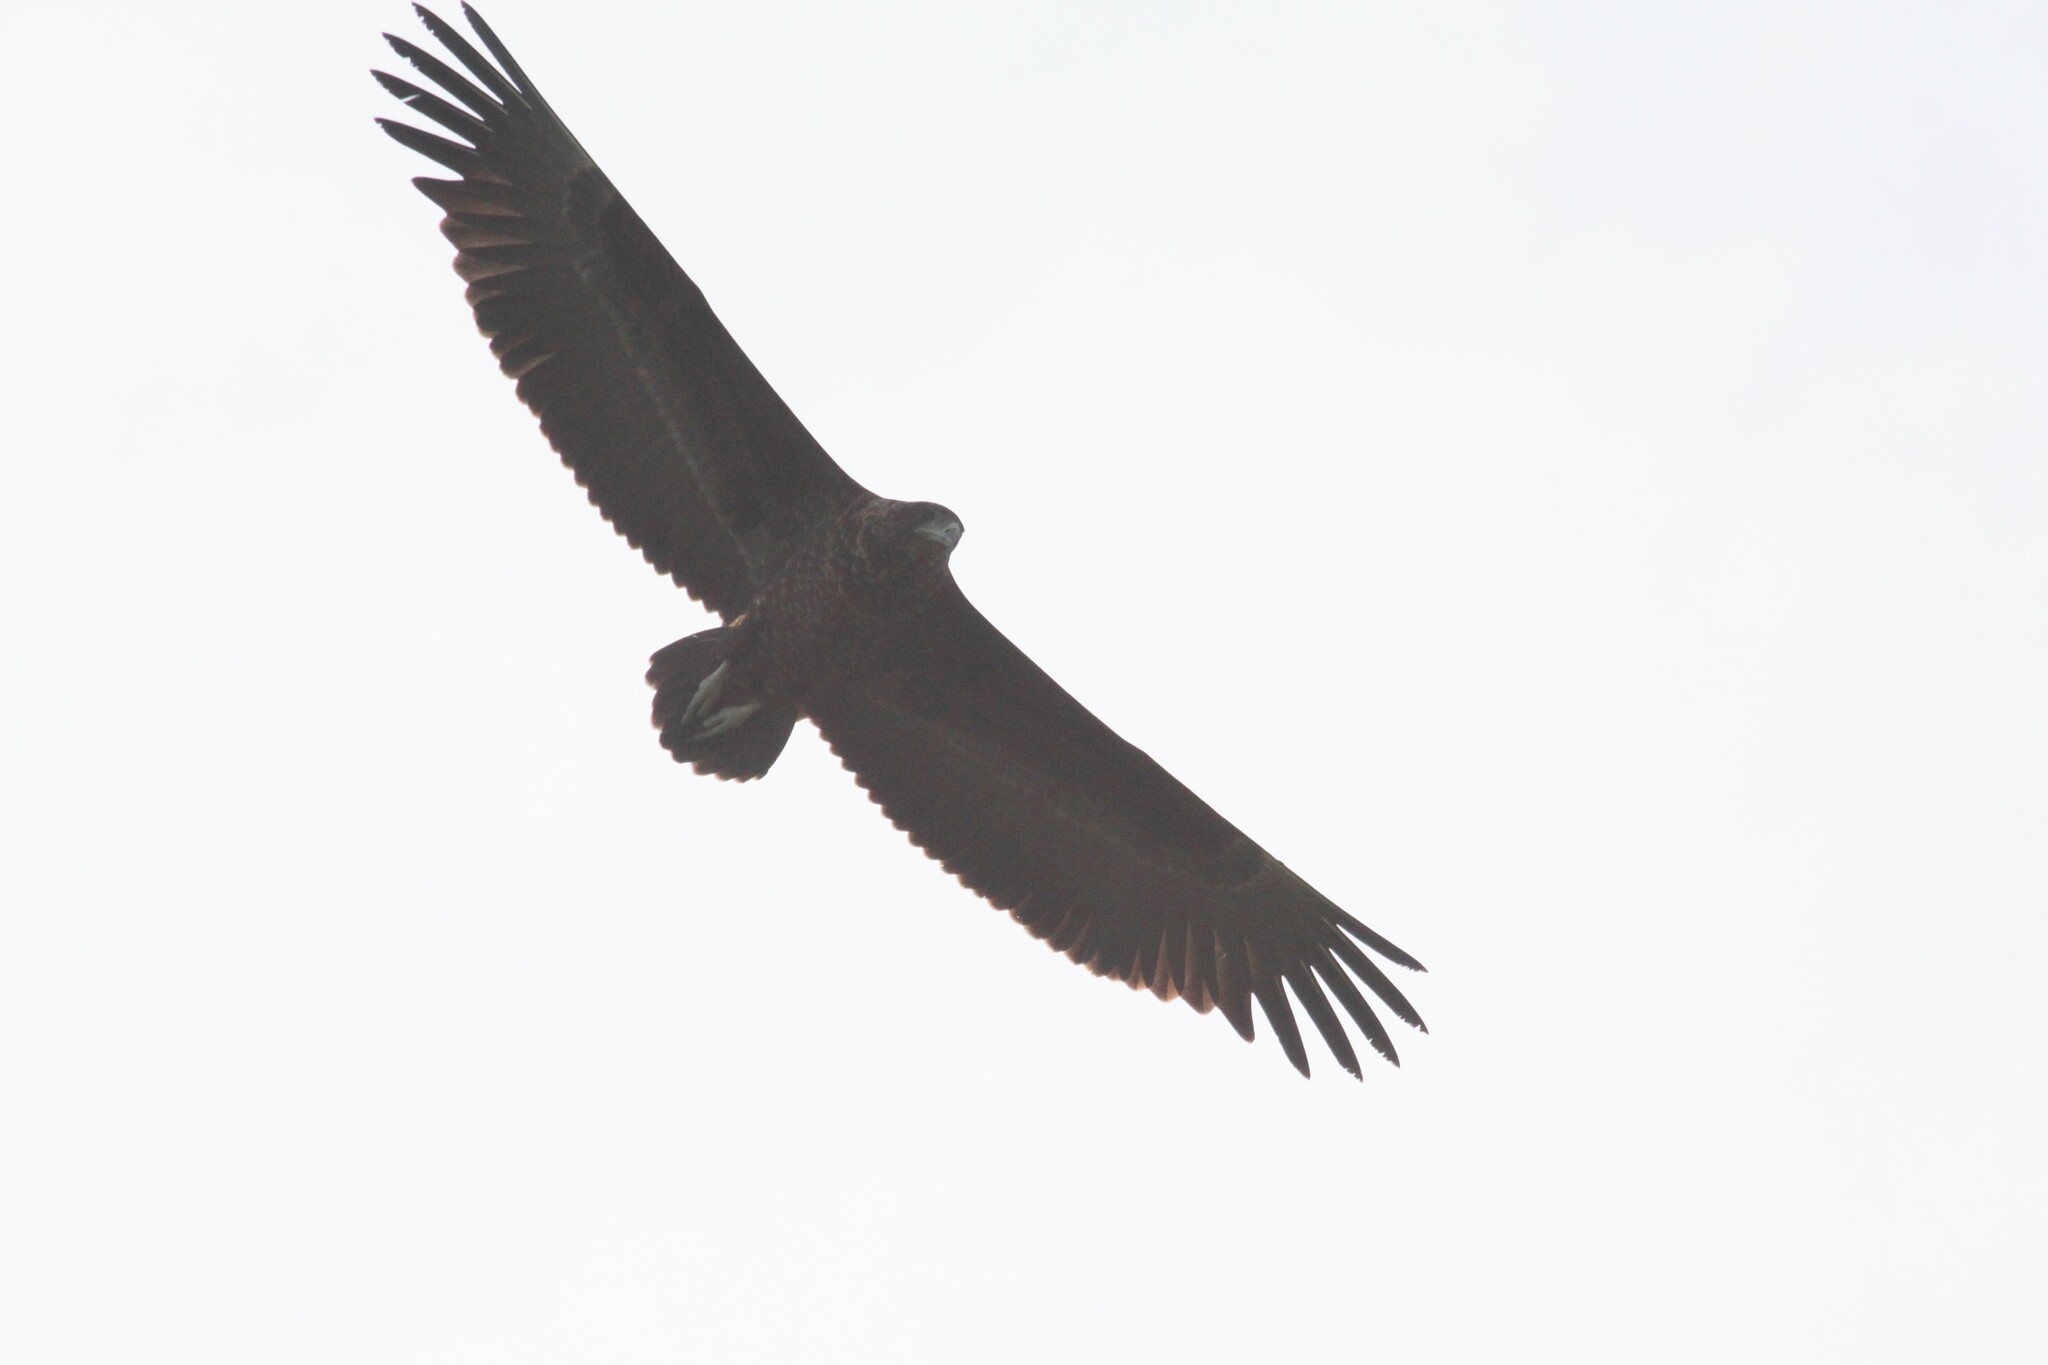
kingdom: Animalia
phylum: Chordata
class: Aves
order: Accipitriformes
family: Accipitridae
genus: Terathopius
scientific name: Terathopius ecaudatus
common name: Bateleur
